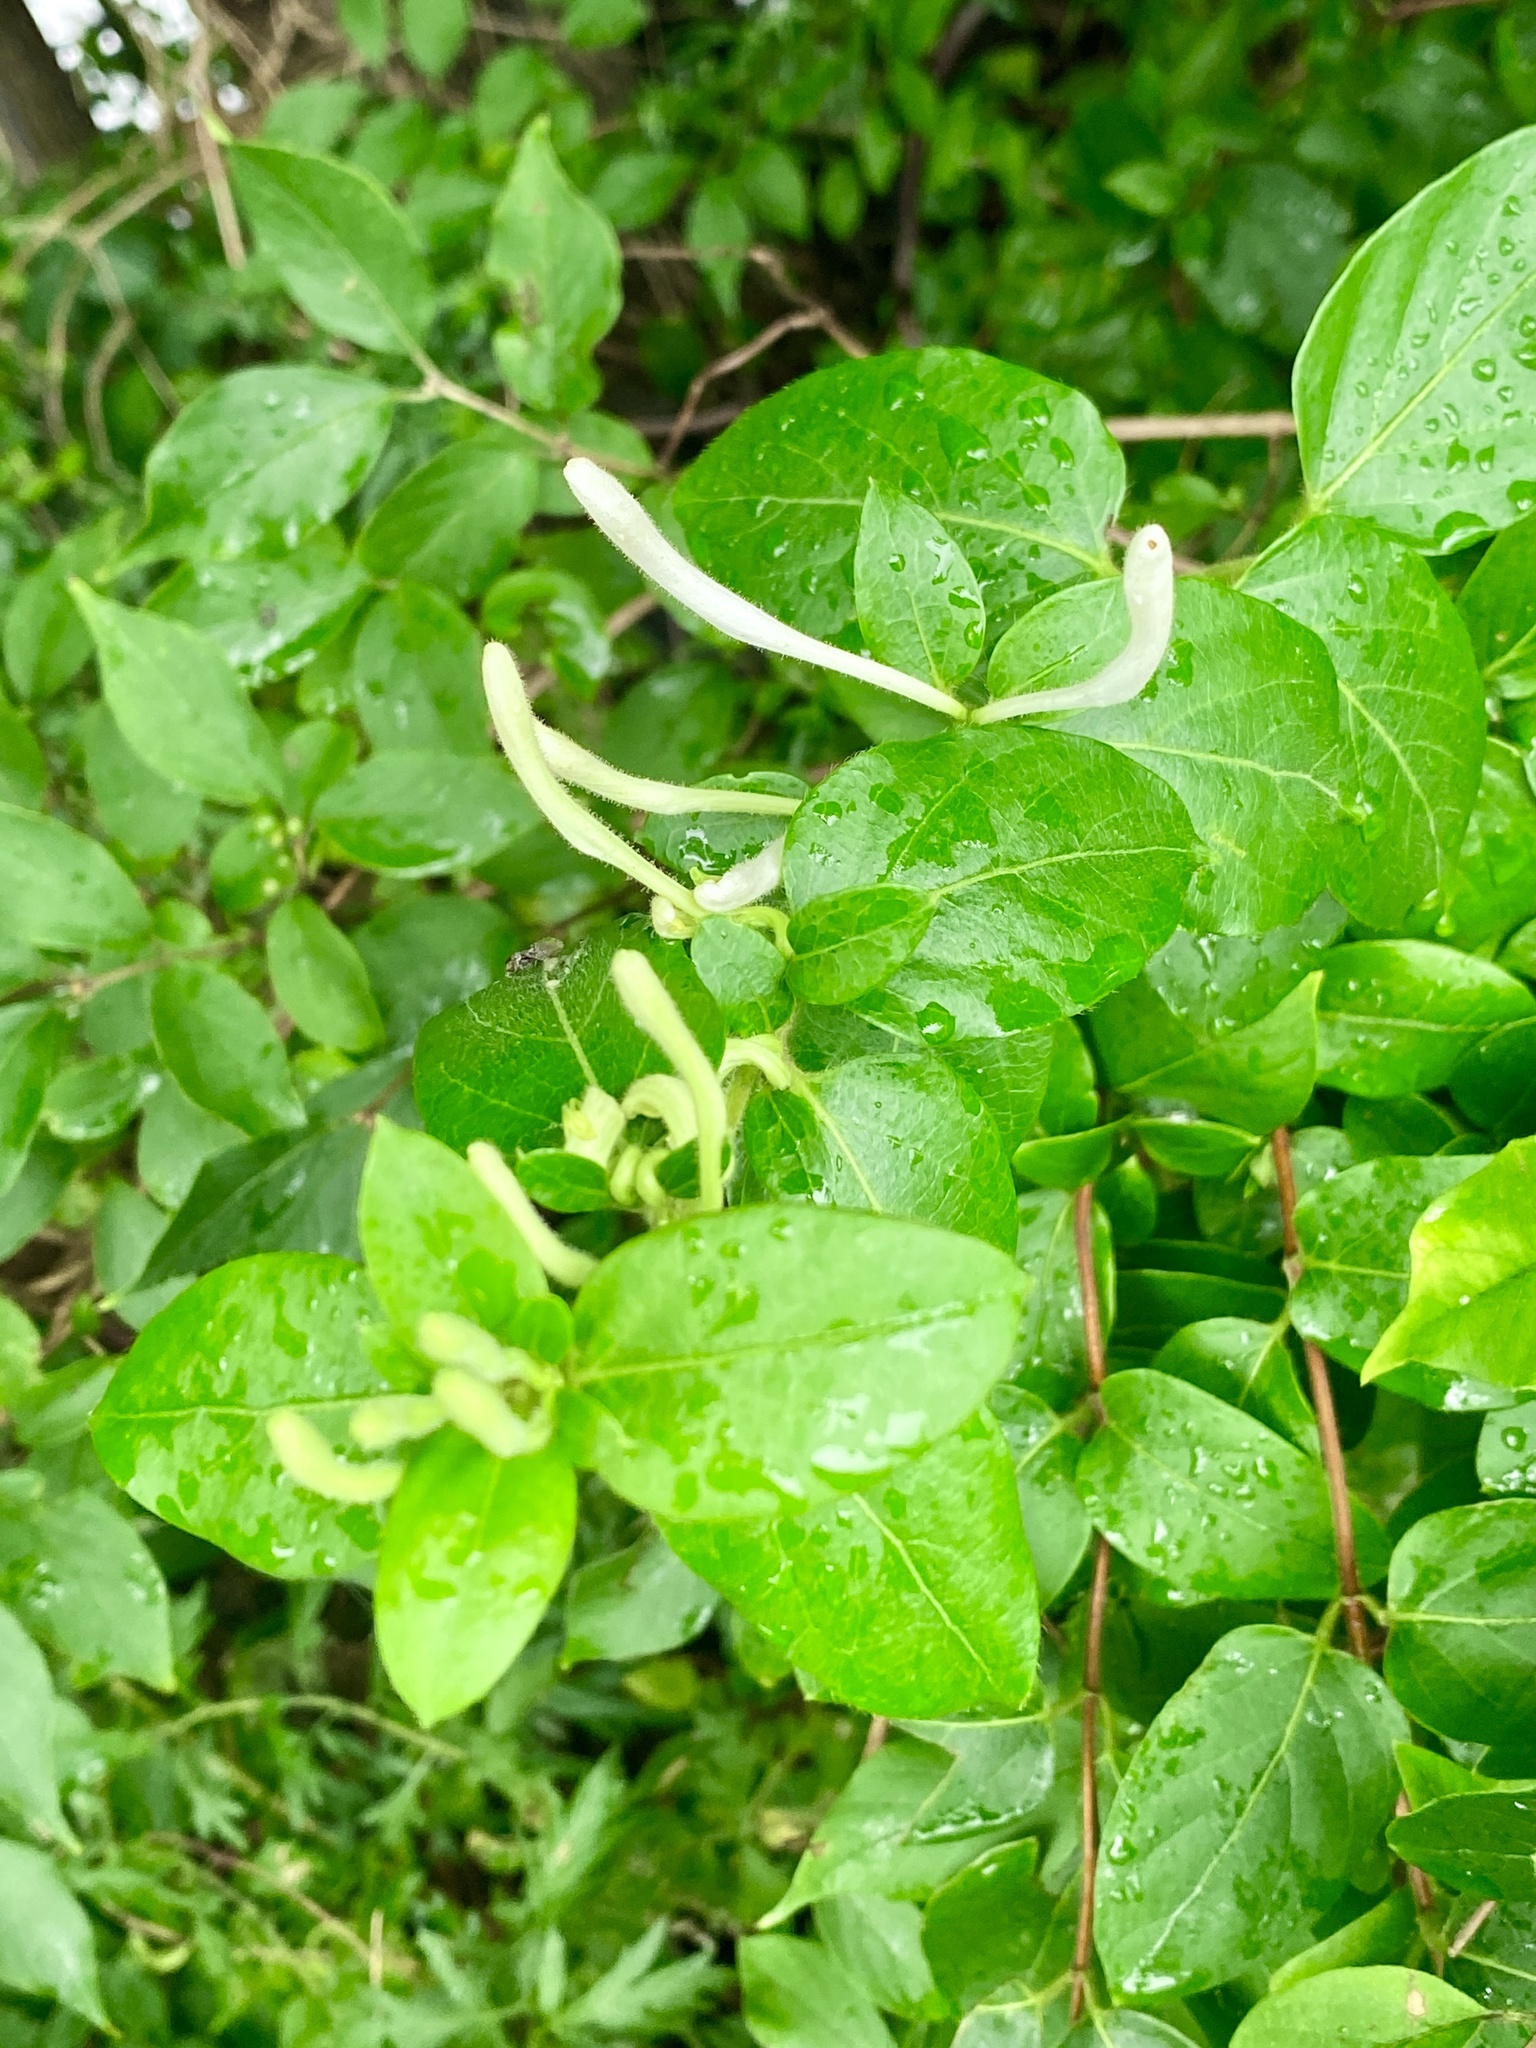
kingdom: Plantae
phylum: Tracheophyta
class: Magnoliopsida
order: Dipsacales
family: Caprifoliaceae
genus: Lonicera
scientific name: Lonicera japonica
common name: Japanese honeysuckle
